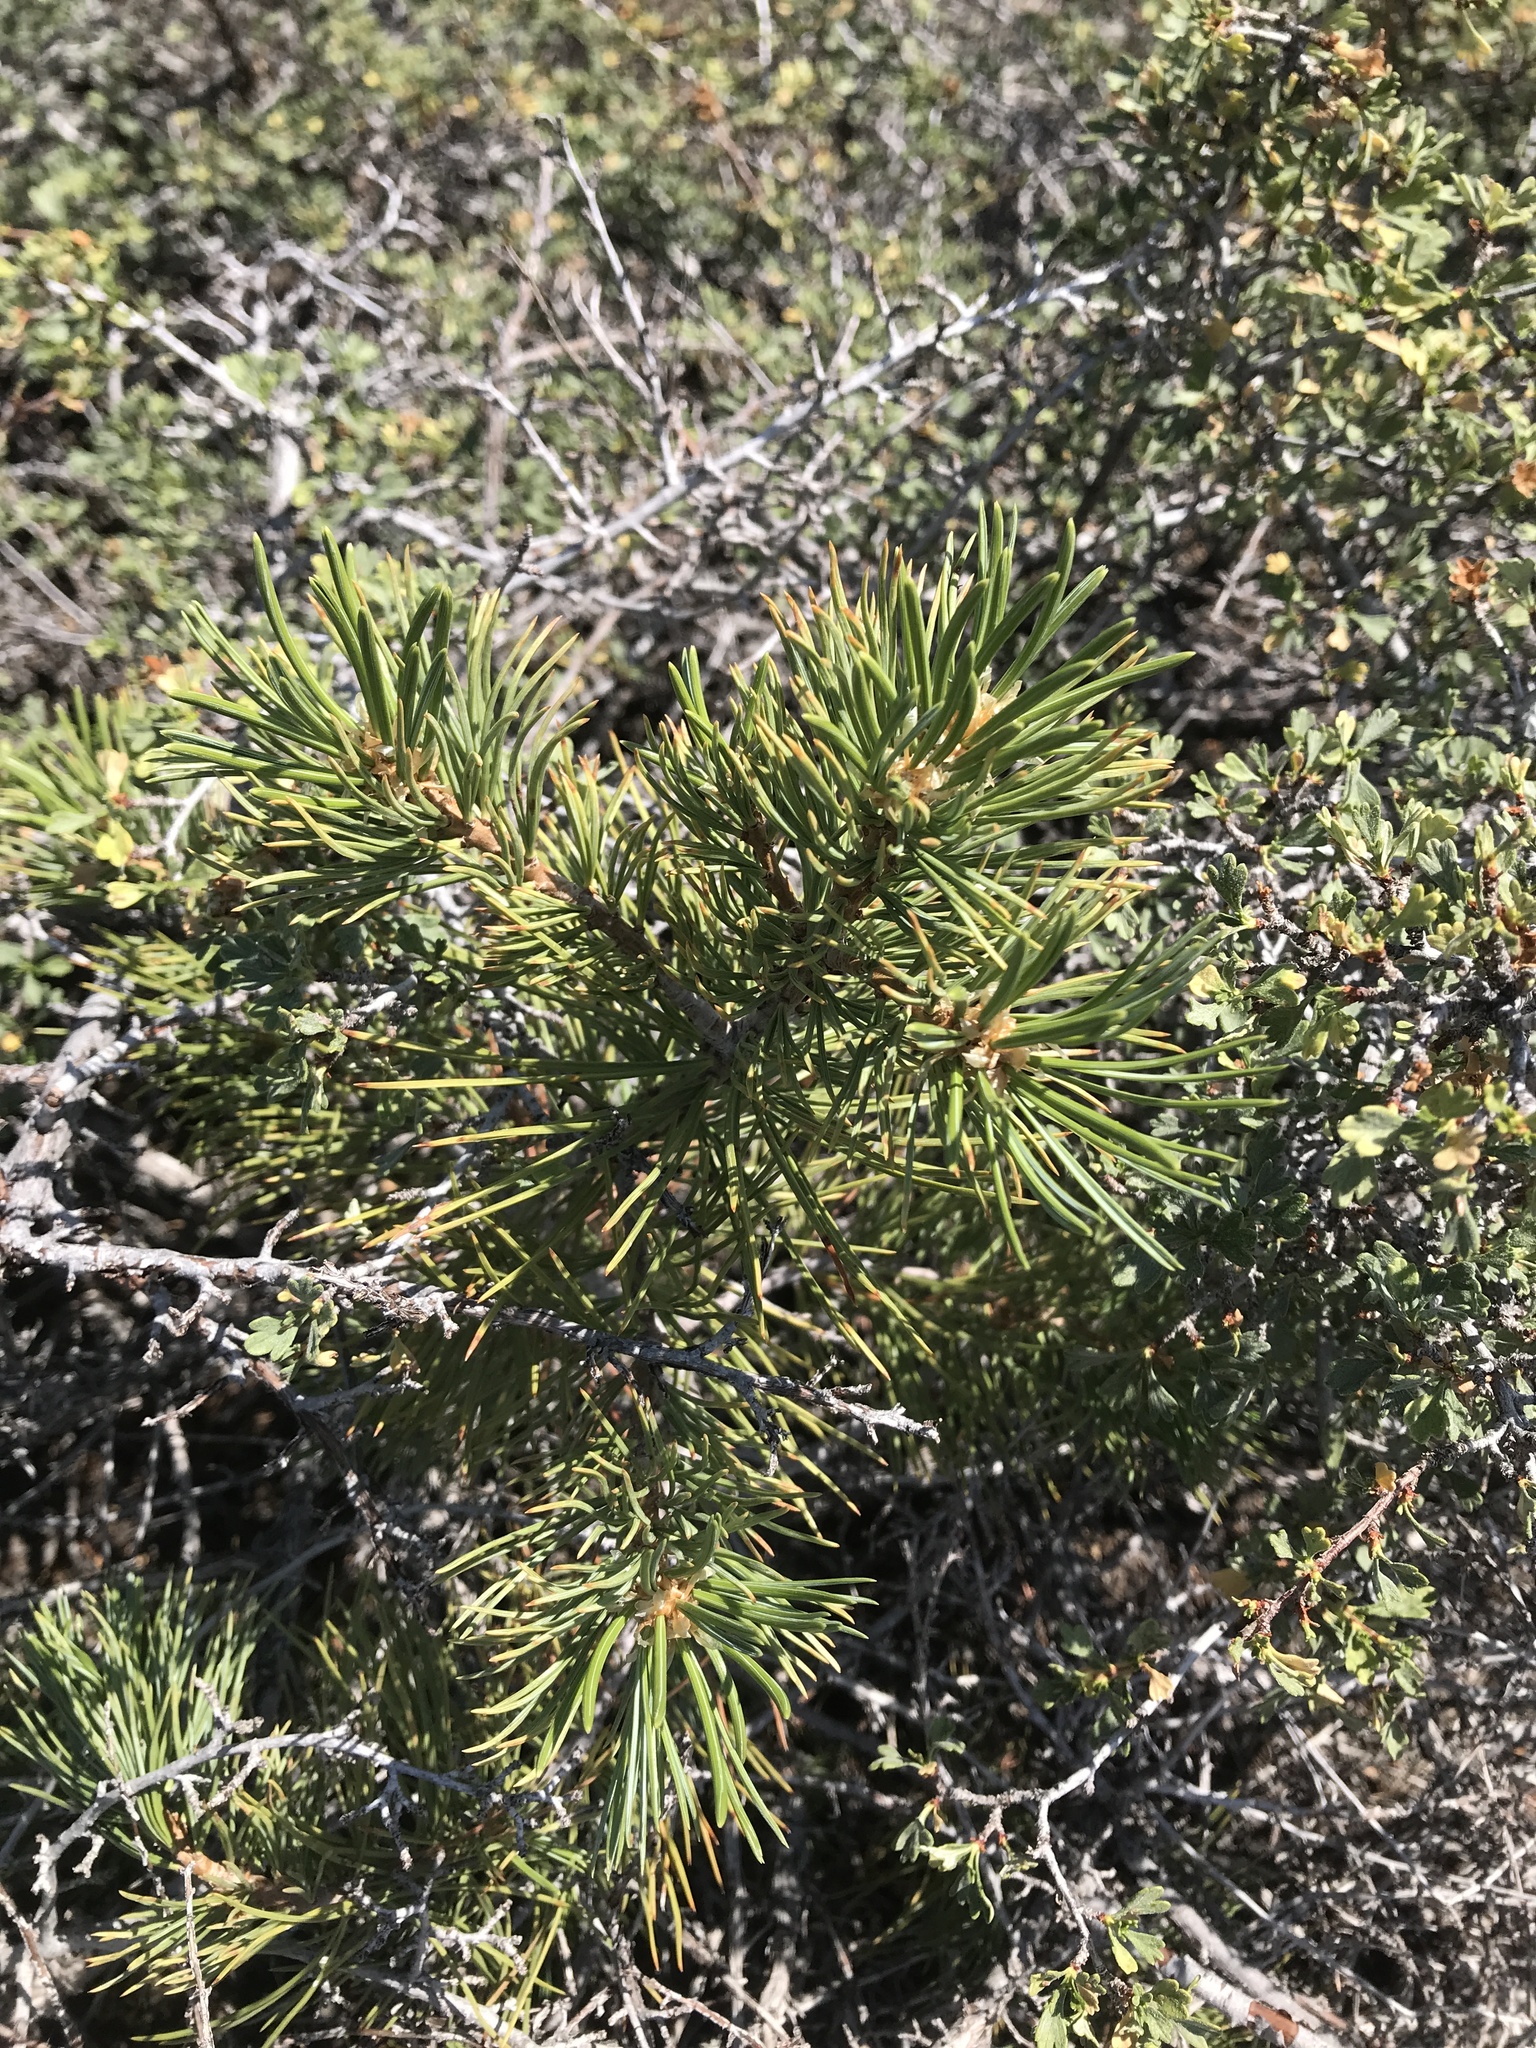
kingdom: Plantae
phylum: Tracheophyta
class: Pinopsida
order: Pinales
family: Pinaceae
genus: Pinus
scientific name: Pinus contorta
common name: Lodgepole pine
